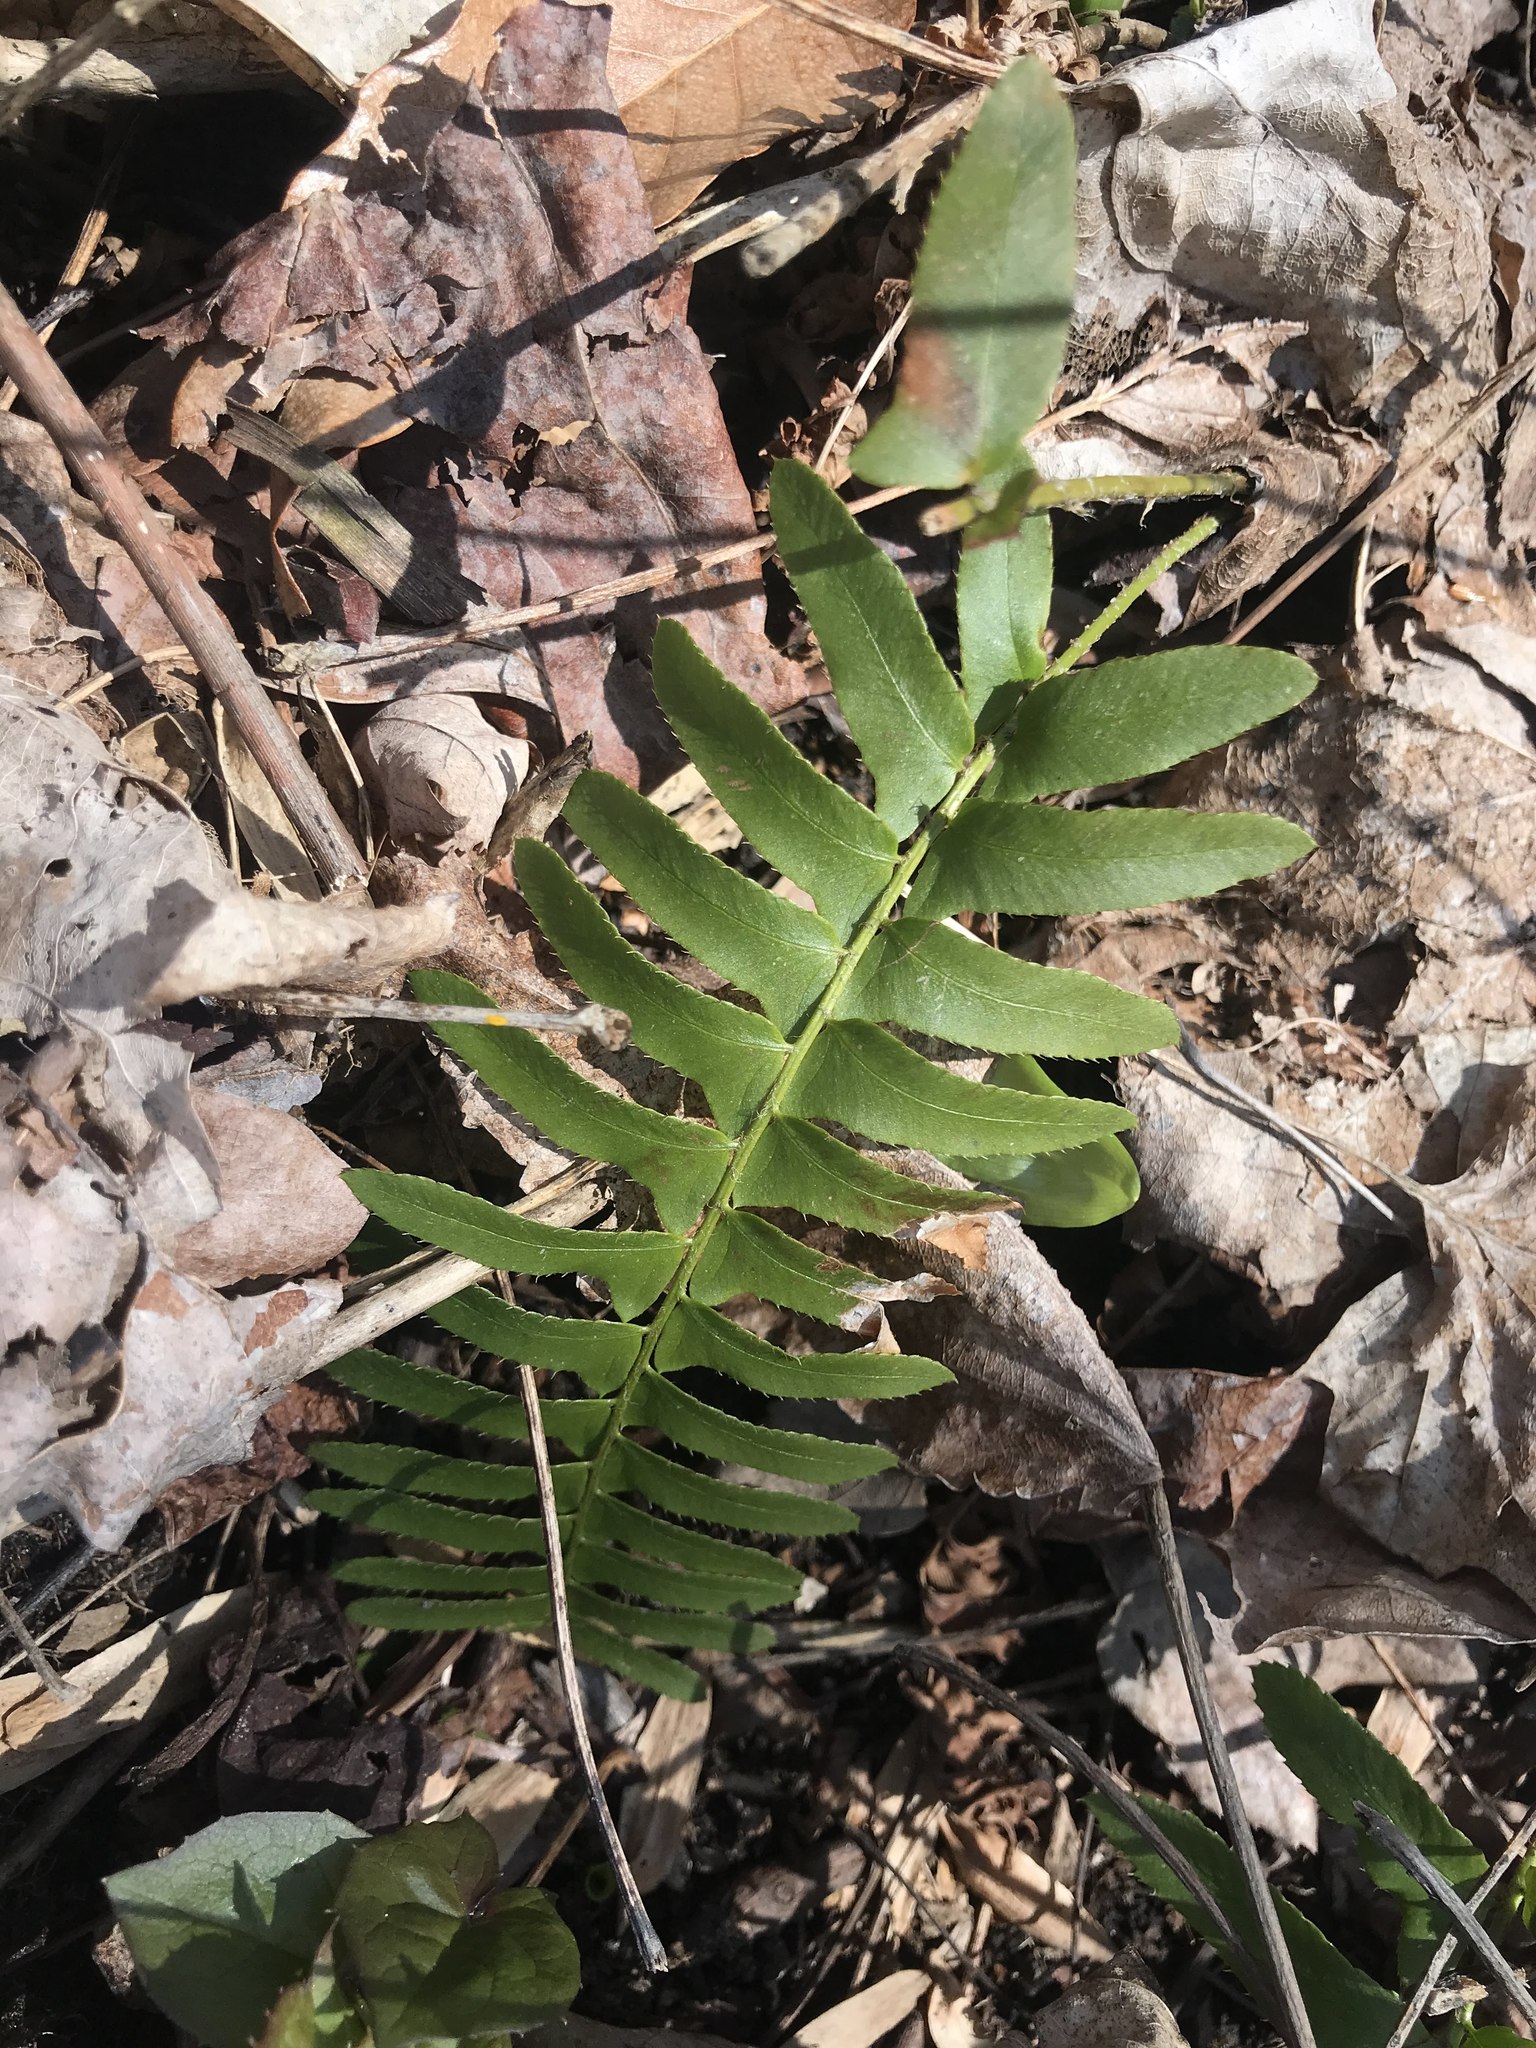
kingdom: Plantae
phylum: Tracheophyta
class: Polypodiopsida
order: Polypodiales
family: Dryopteridaceae
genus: Polystichum
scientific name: Polystichum acrostichoides
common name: Christmas fern
